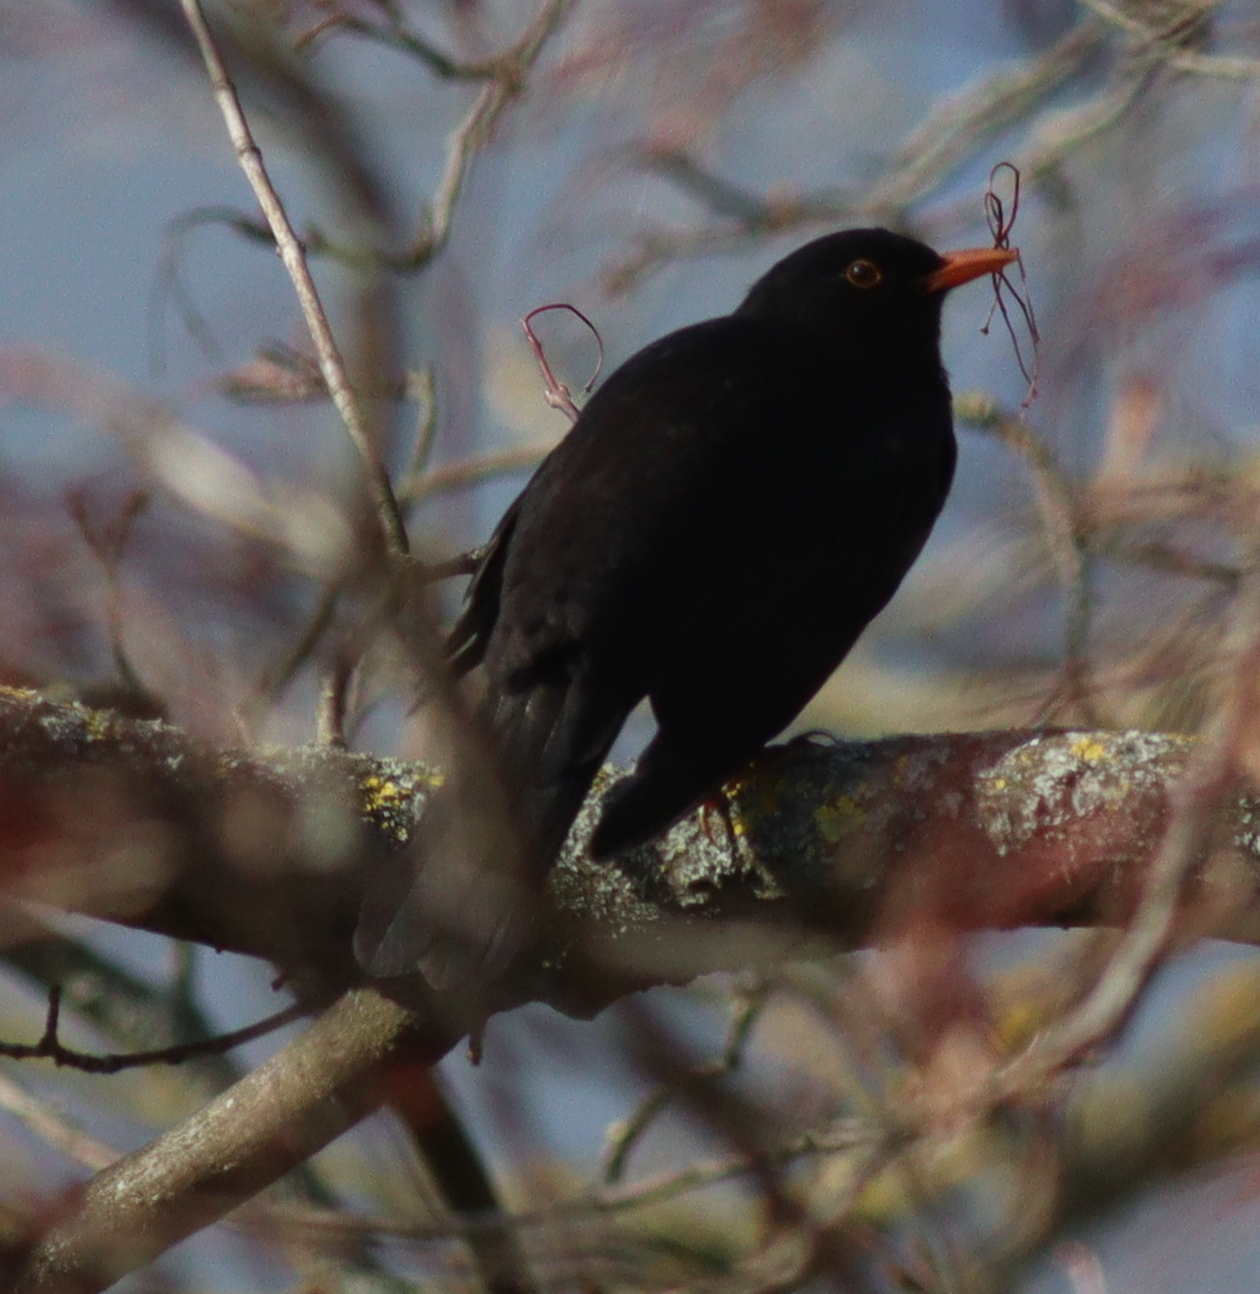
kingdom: Animalia
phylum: Chordata
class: Aves
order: Passeriformes
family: Turdidae
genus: Turdus
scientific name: Turdus merula
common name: Common blackbird
